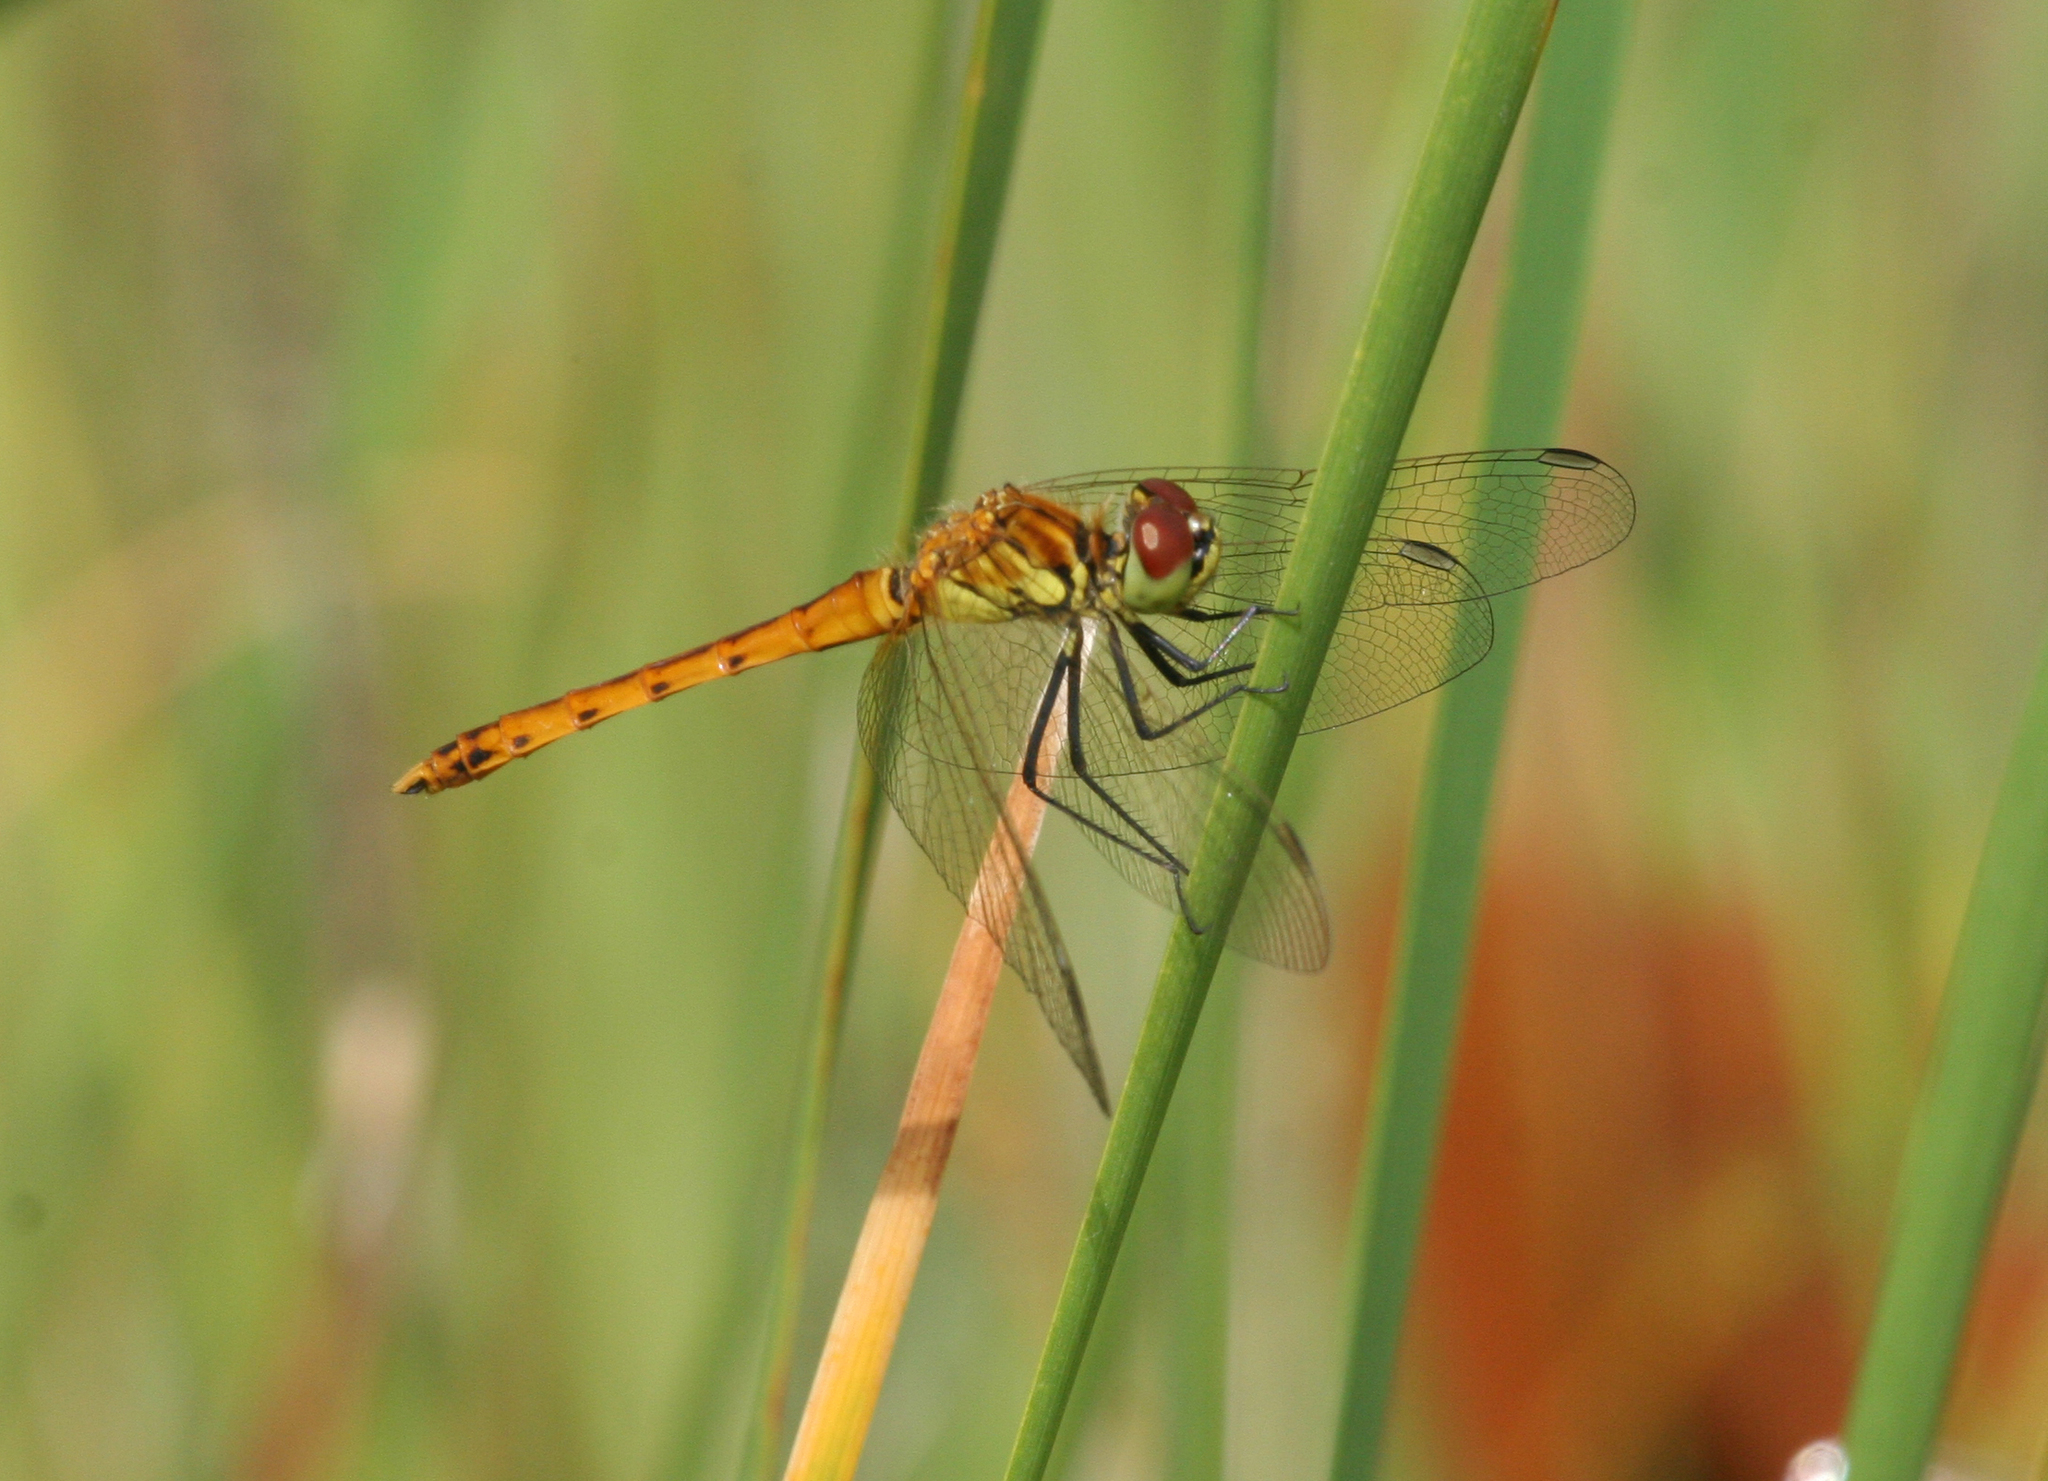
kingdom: Animalia
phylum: Arthropoda
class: Insecta
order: Odonata
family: Libellulidae
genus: Sympetrum
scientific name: Sympetrum depressiusculum
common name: Spotted darter
